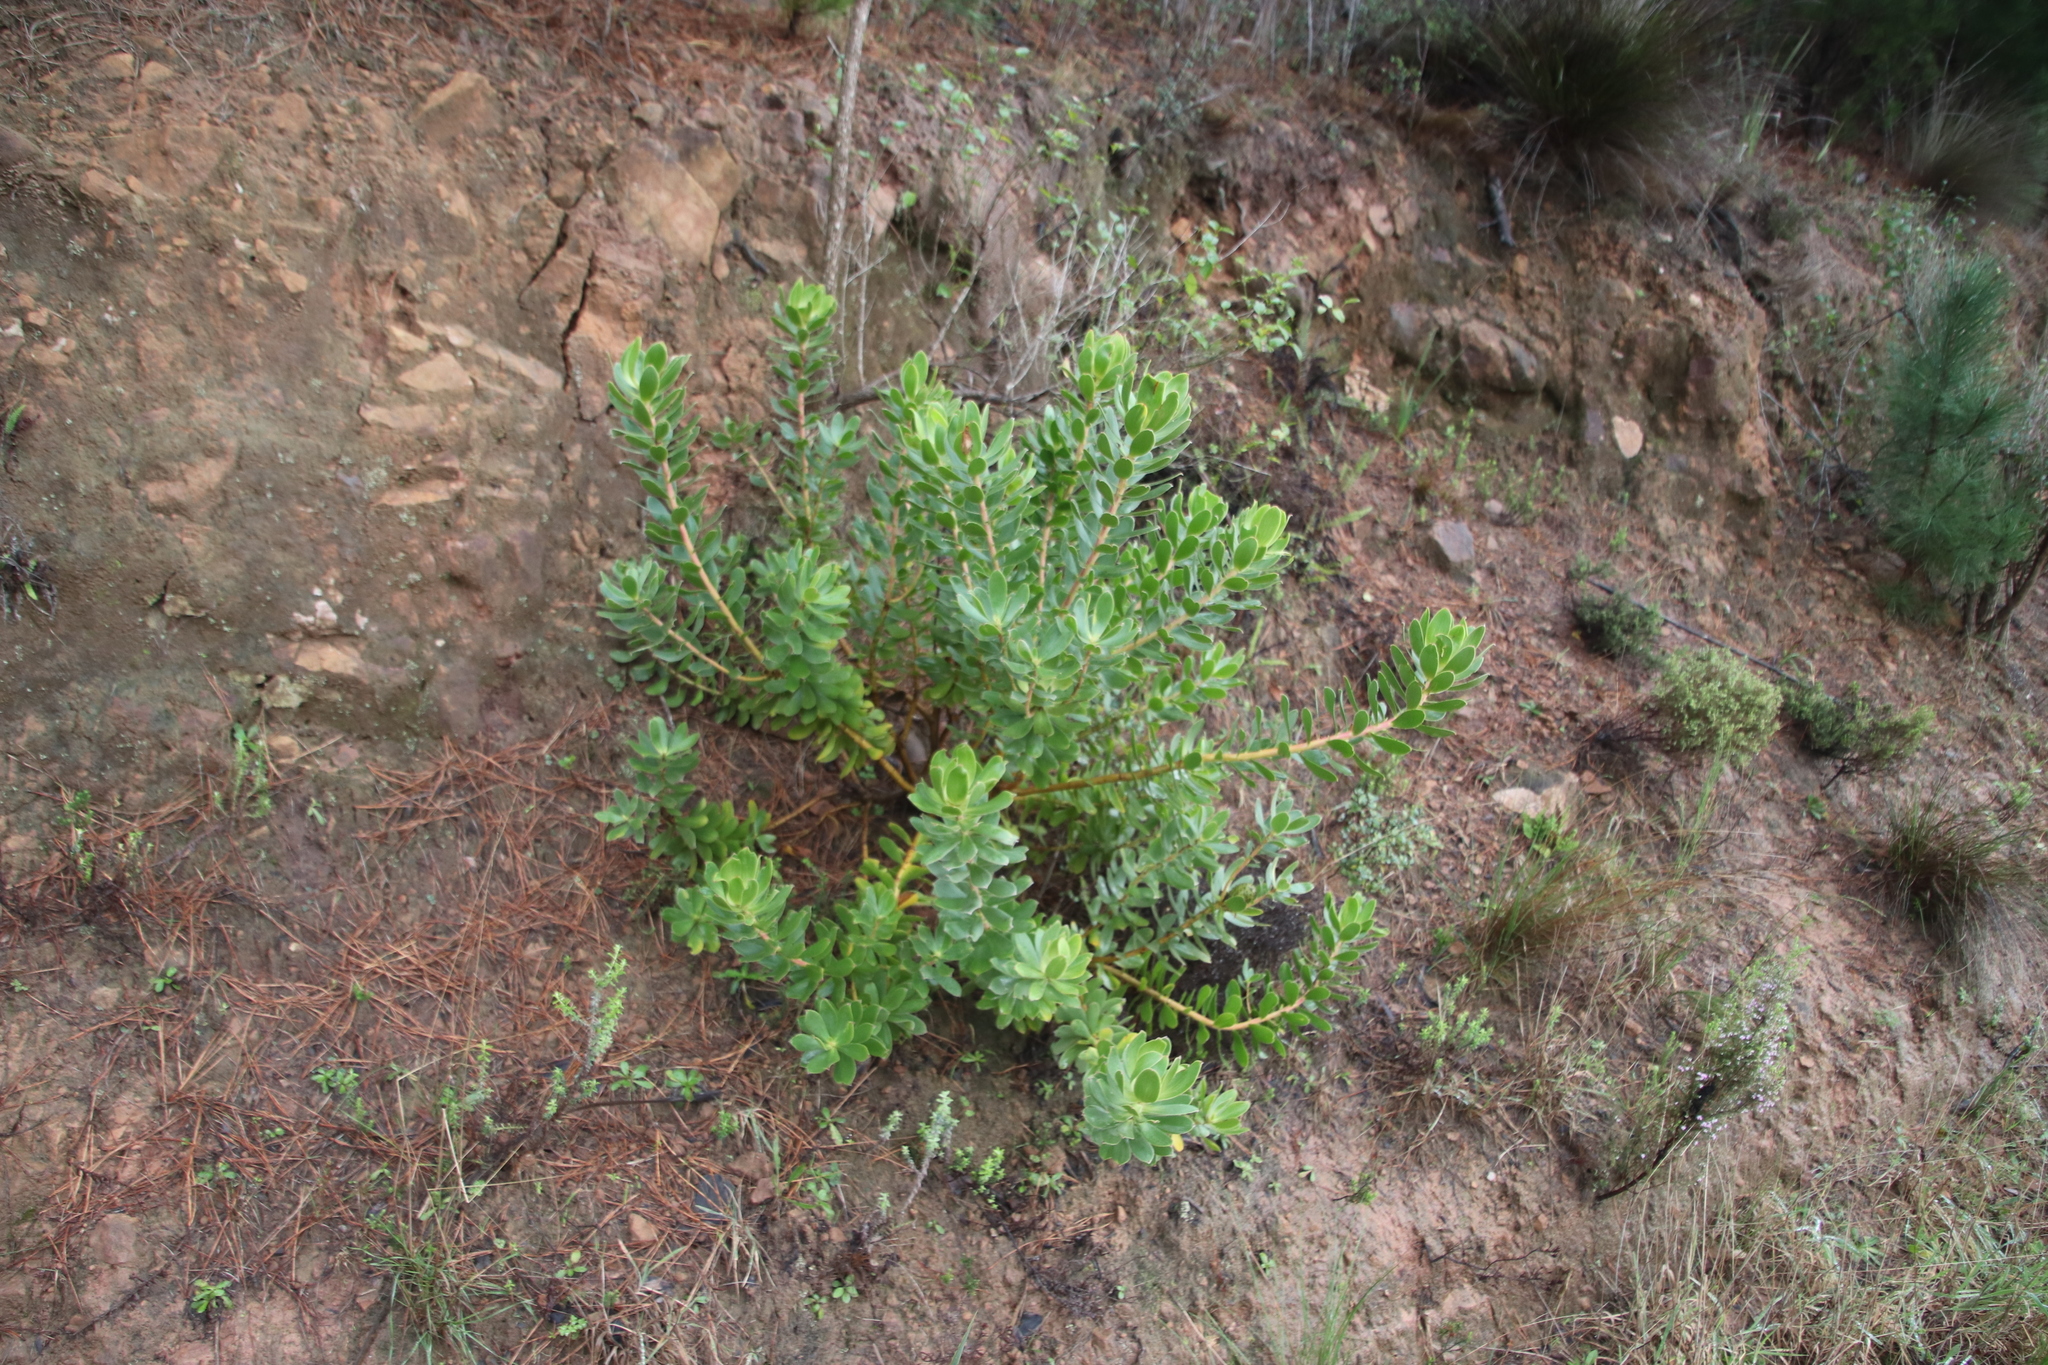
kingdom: Plantae
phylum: Tracheophyta
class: Magnoliopsida
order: Proteales
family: Proteaceae
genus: Leucadendron
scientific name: Leucadendron laureolum
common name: Golden sunshinebush
